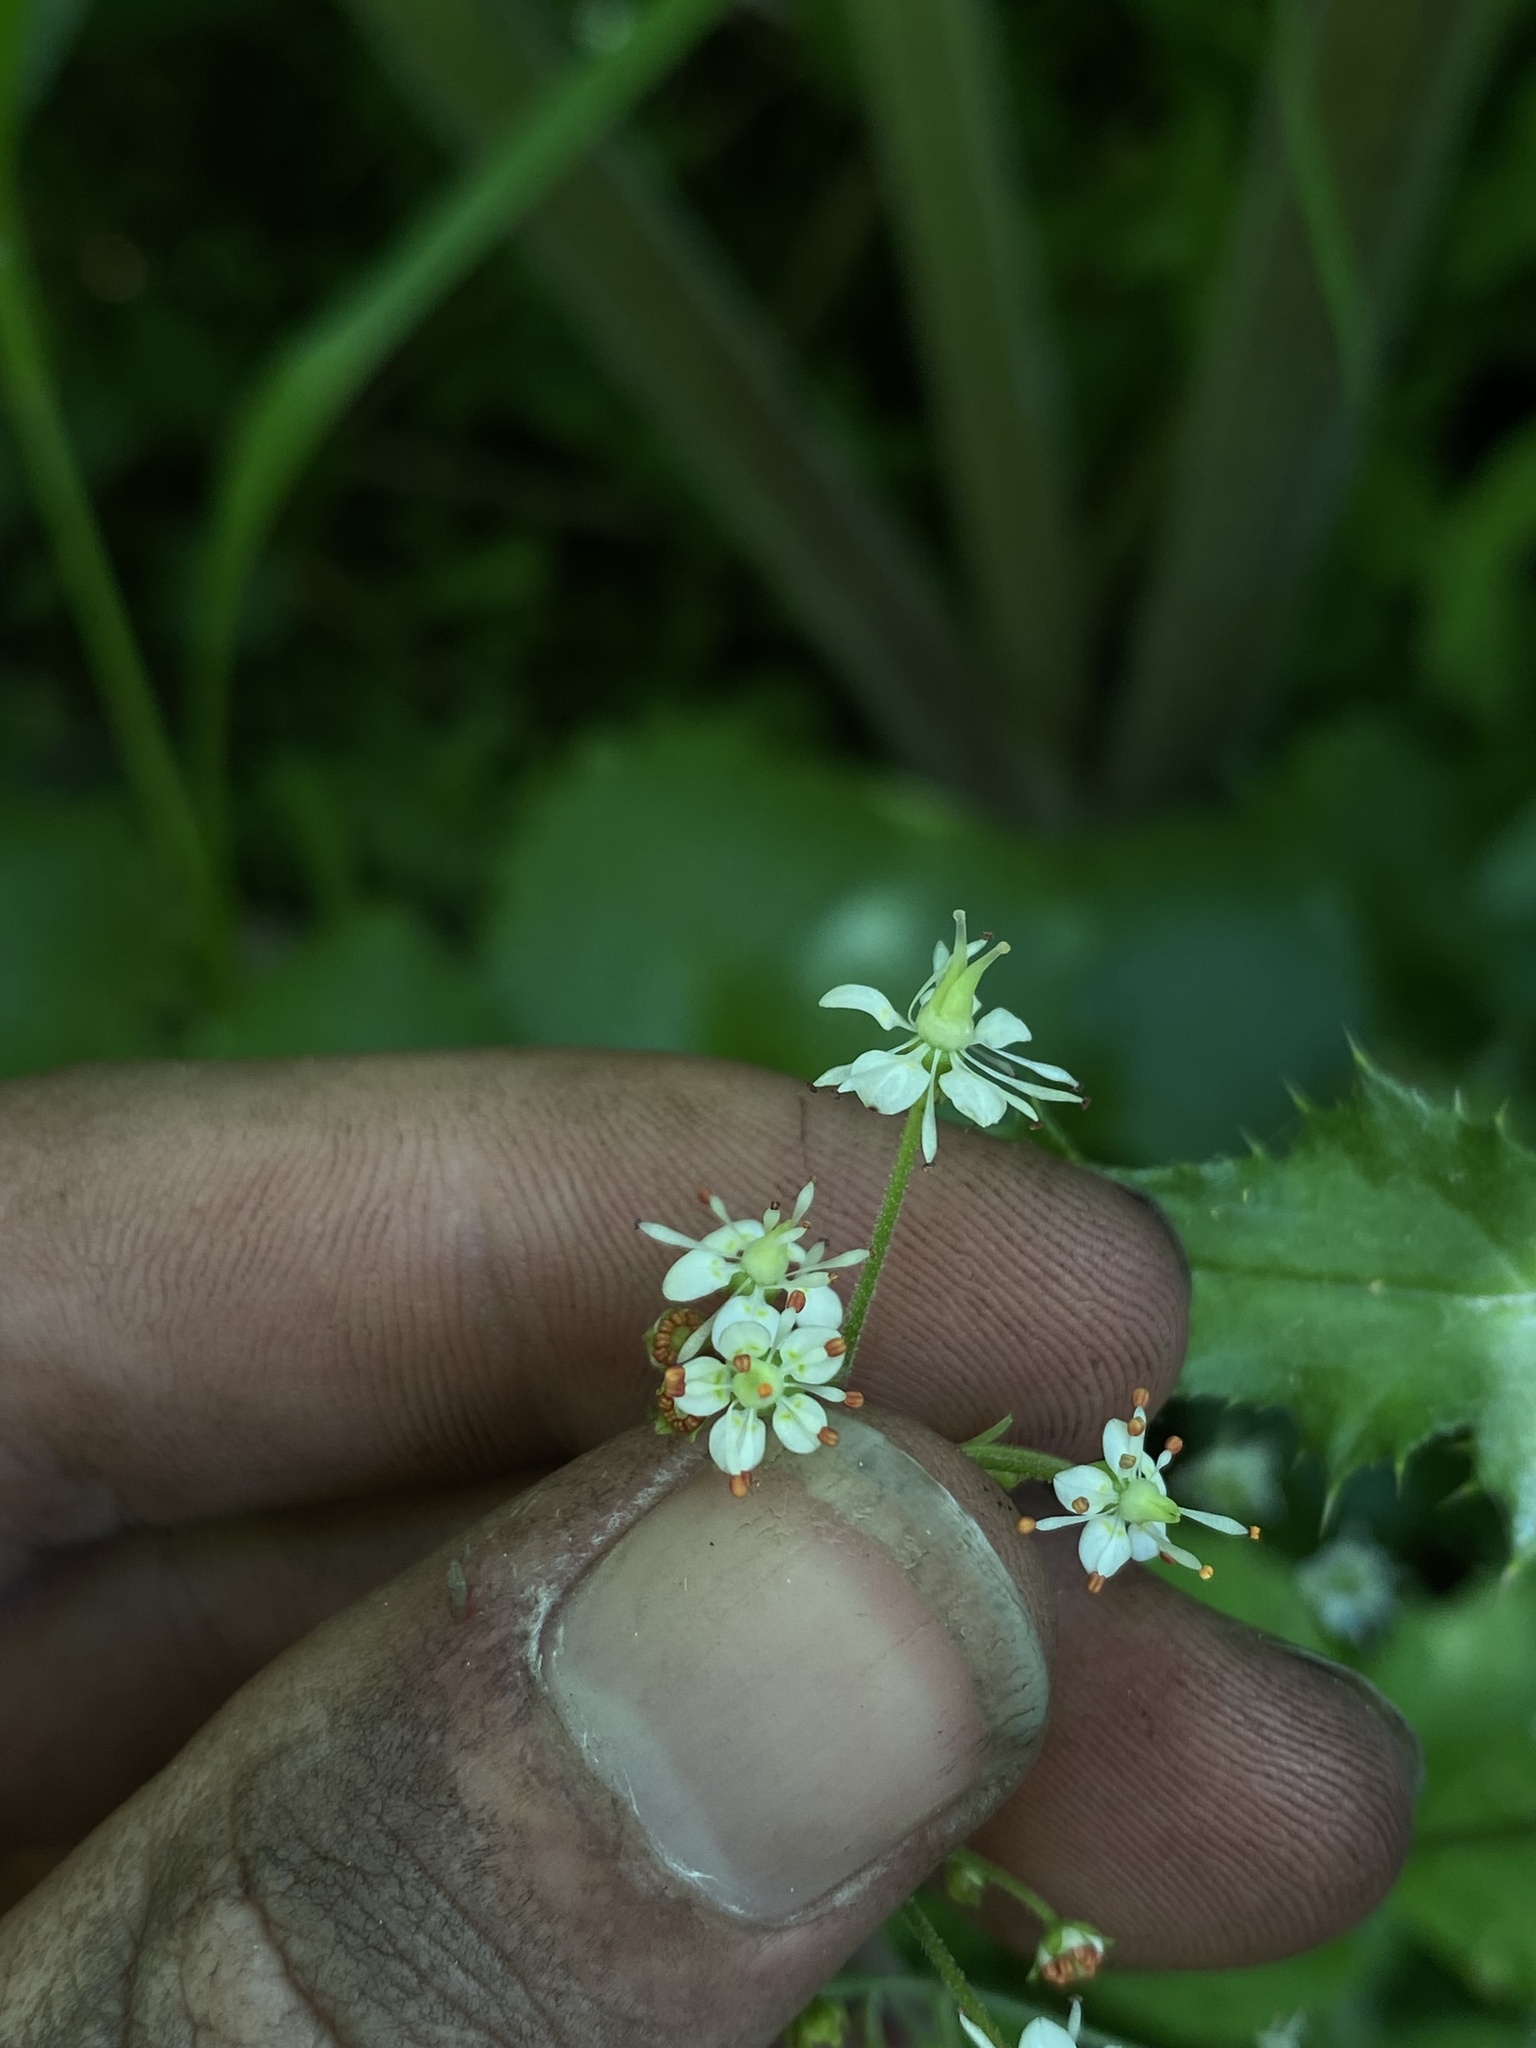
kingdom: Plantae
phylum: Tracheophyta
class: Magnoliopsida
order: Saxifragales
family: Saxifragaceae
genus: Micranthes
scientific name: Micranthes odontoloma
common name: Brook saxifrage
